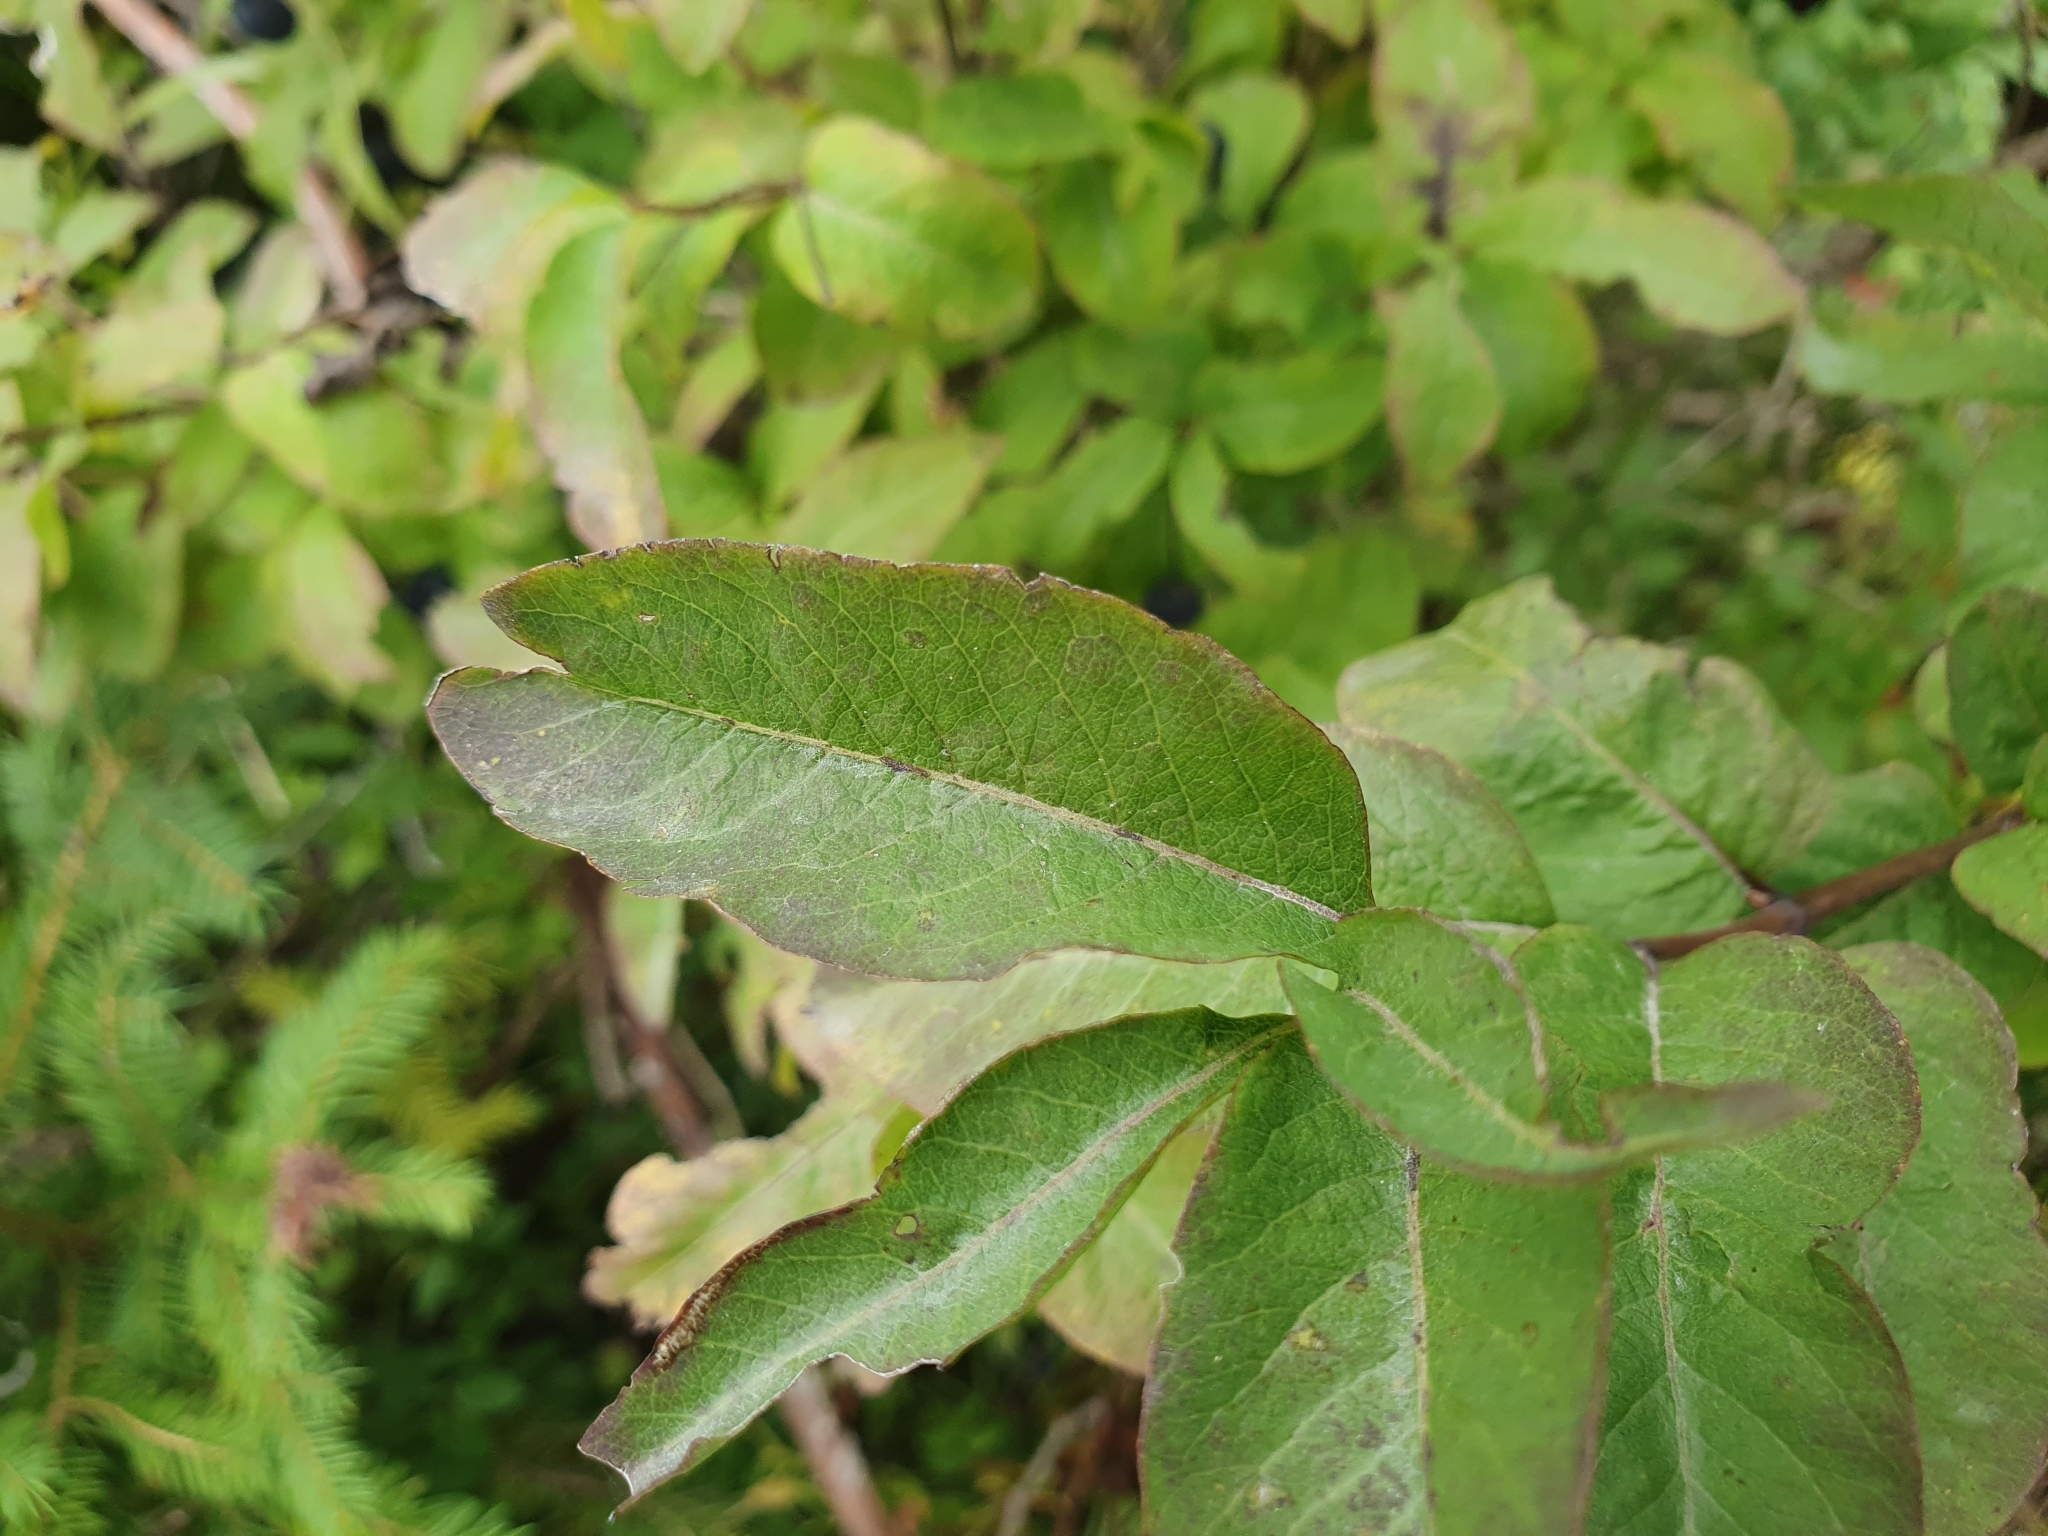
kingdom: Plantae
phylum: Tracheophyta
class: Magnoliopsida
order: Dipsacales
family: Caprifoliaceae
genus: Lonicera
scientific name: Lonicera nigra
